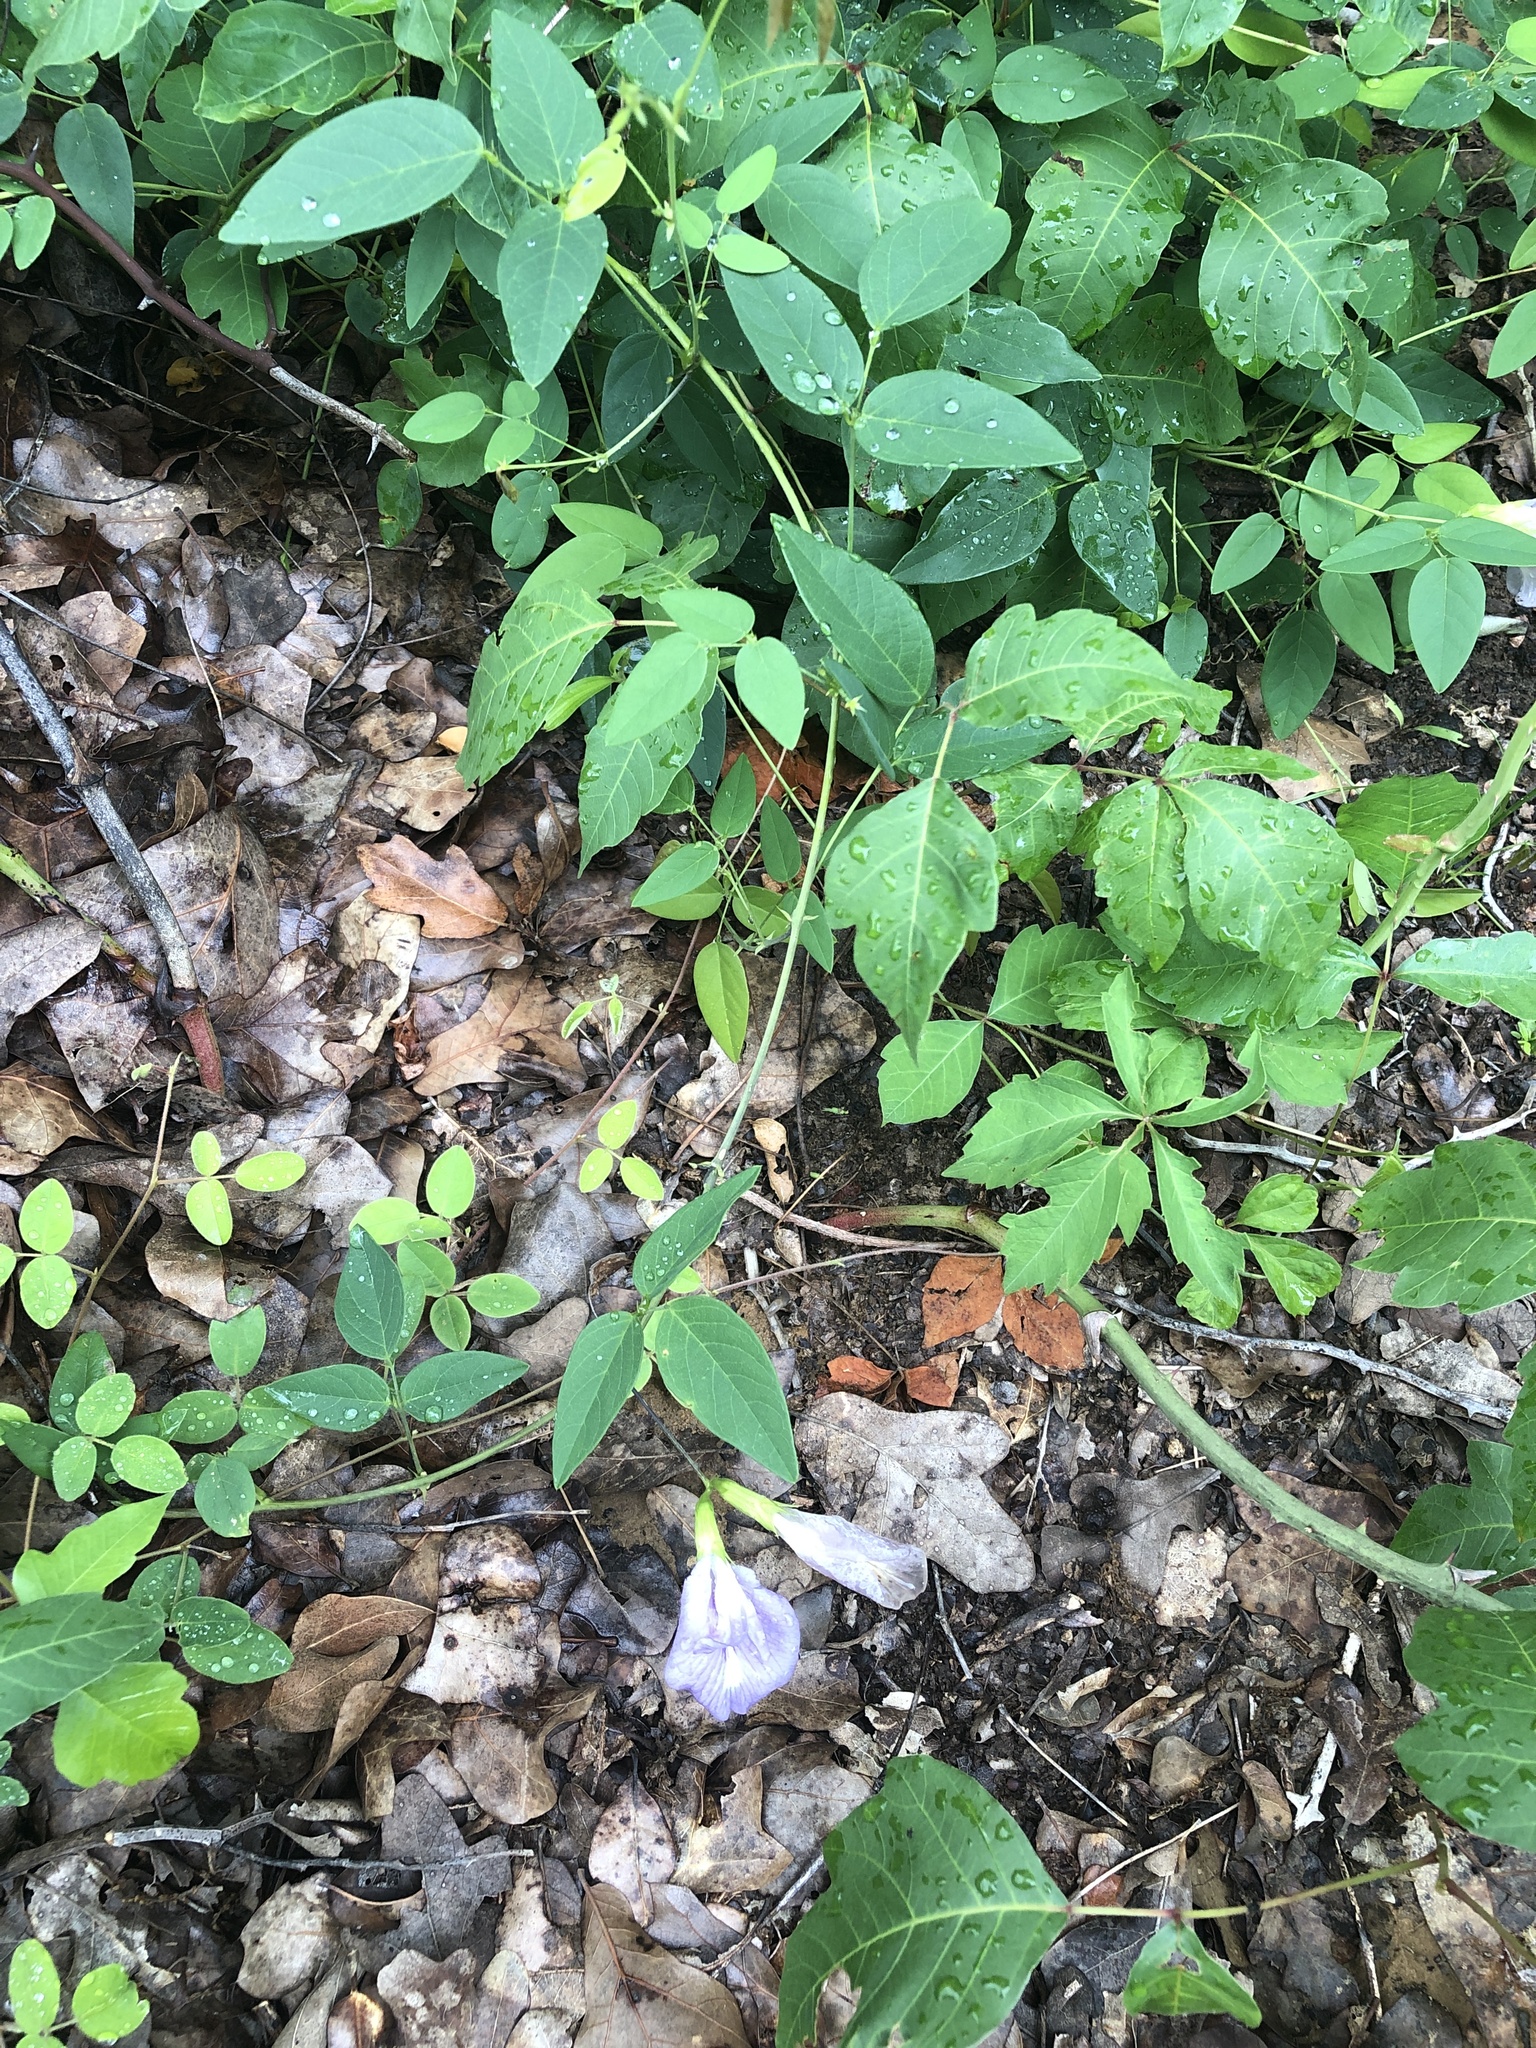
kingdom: Plantae
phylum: Tracheophyta
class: Magnoliopsida
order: Fabales
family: Fabaceae
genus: Clitoria
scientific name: Clitoria mariana
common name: Butterfly-pea
